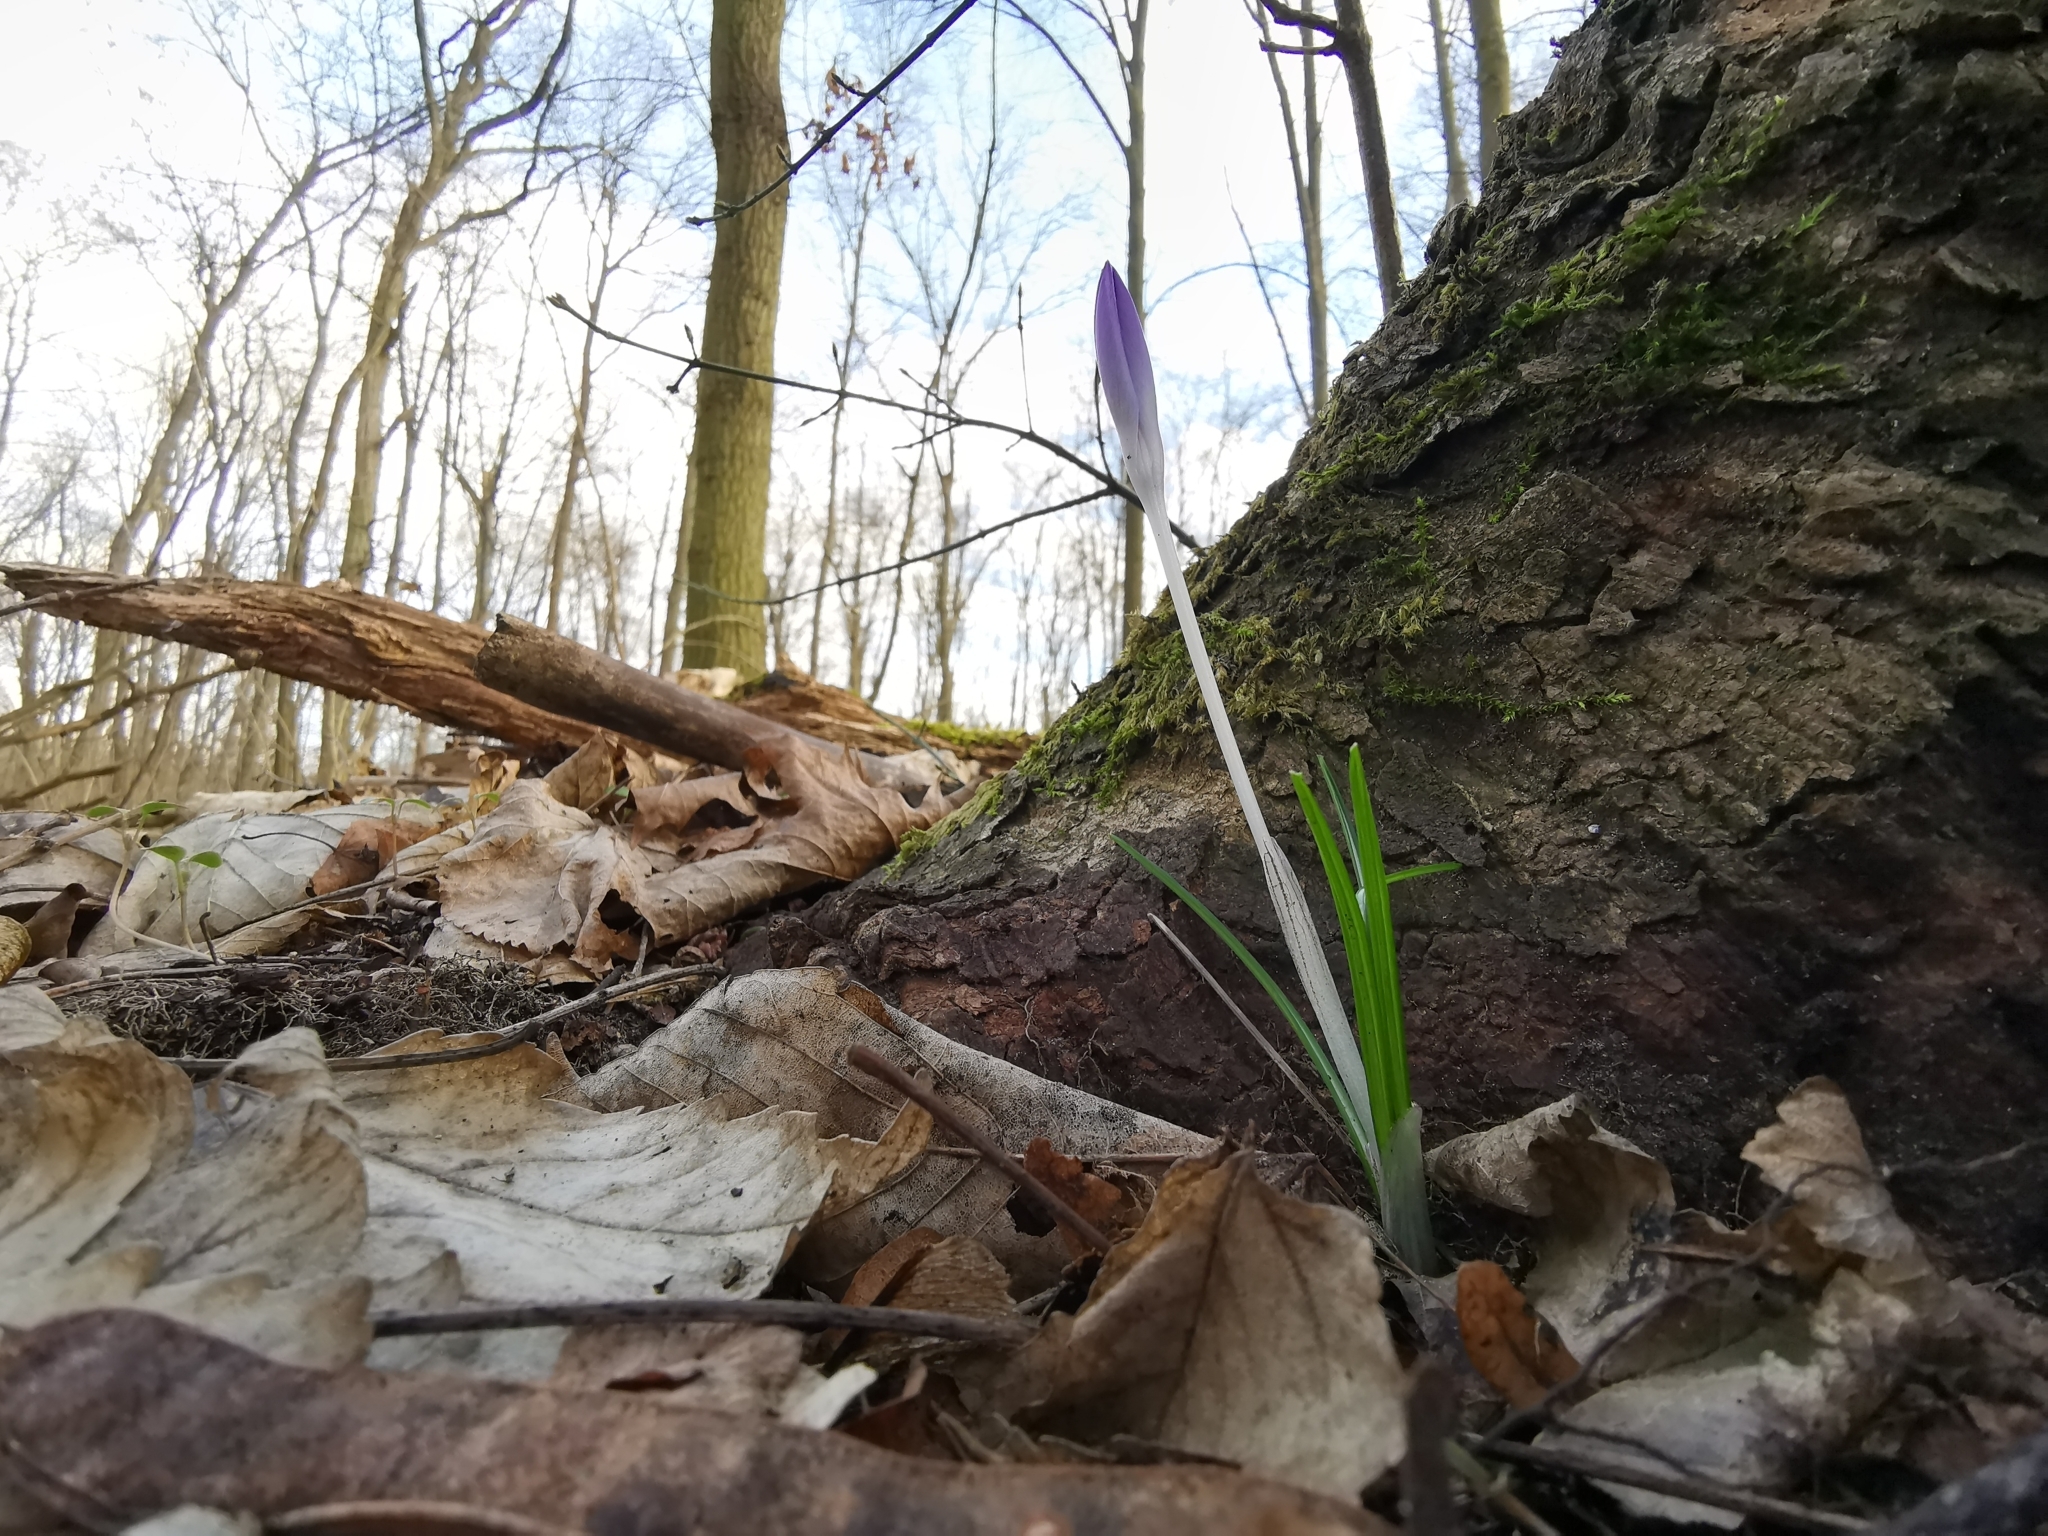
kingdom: Plantae
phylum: Tracheophyta
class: Liliopsida
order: Asparagales
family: Iridaceae
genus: Crocus
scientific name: Crocus tommasinianus
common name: Early crocus
